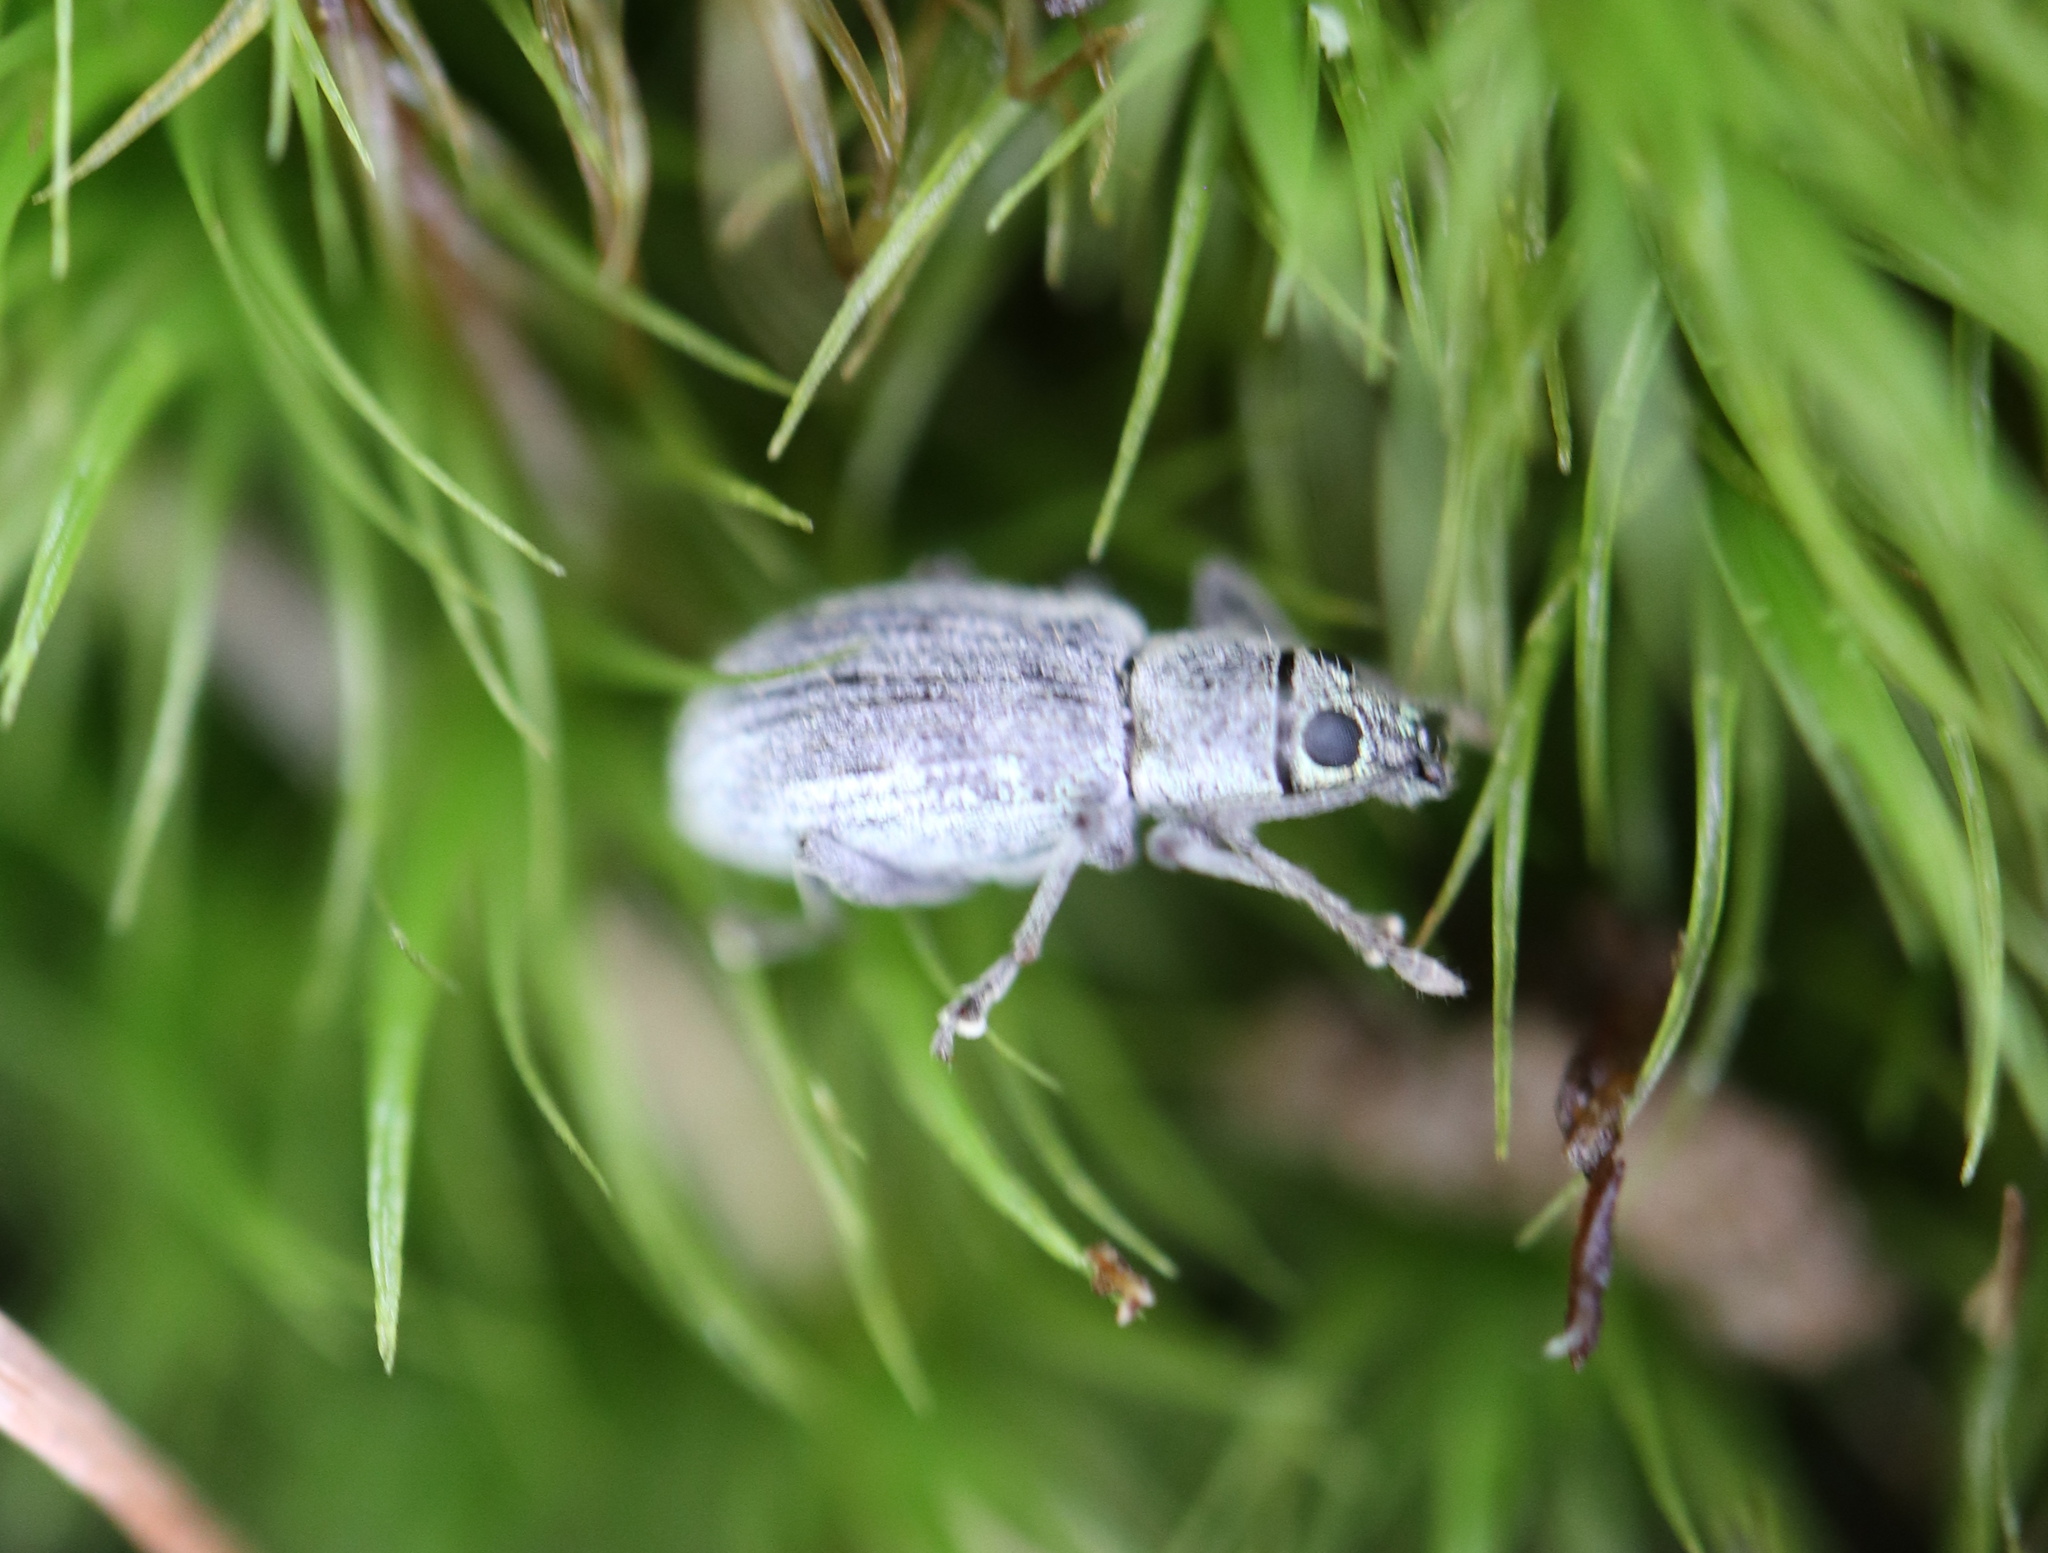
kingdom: Animalia
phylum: Arthropoda
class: Insecta
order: Coleoptera
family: Curculionidae
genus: Cyrtepistomus
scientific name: Cyrtepistomus castaneus
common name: Weevil
